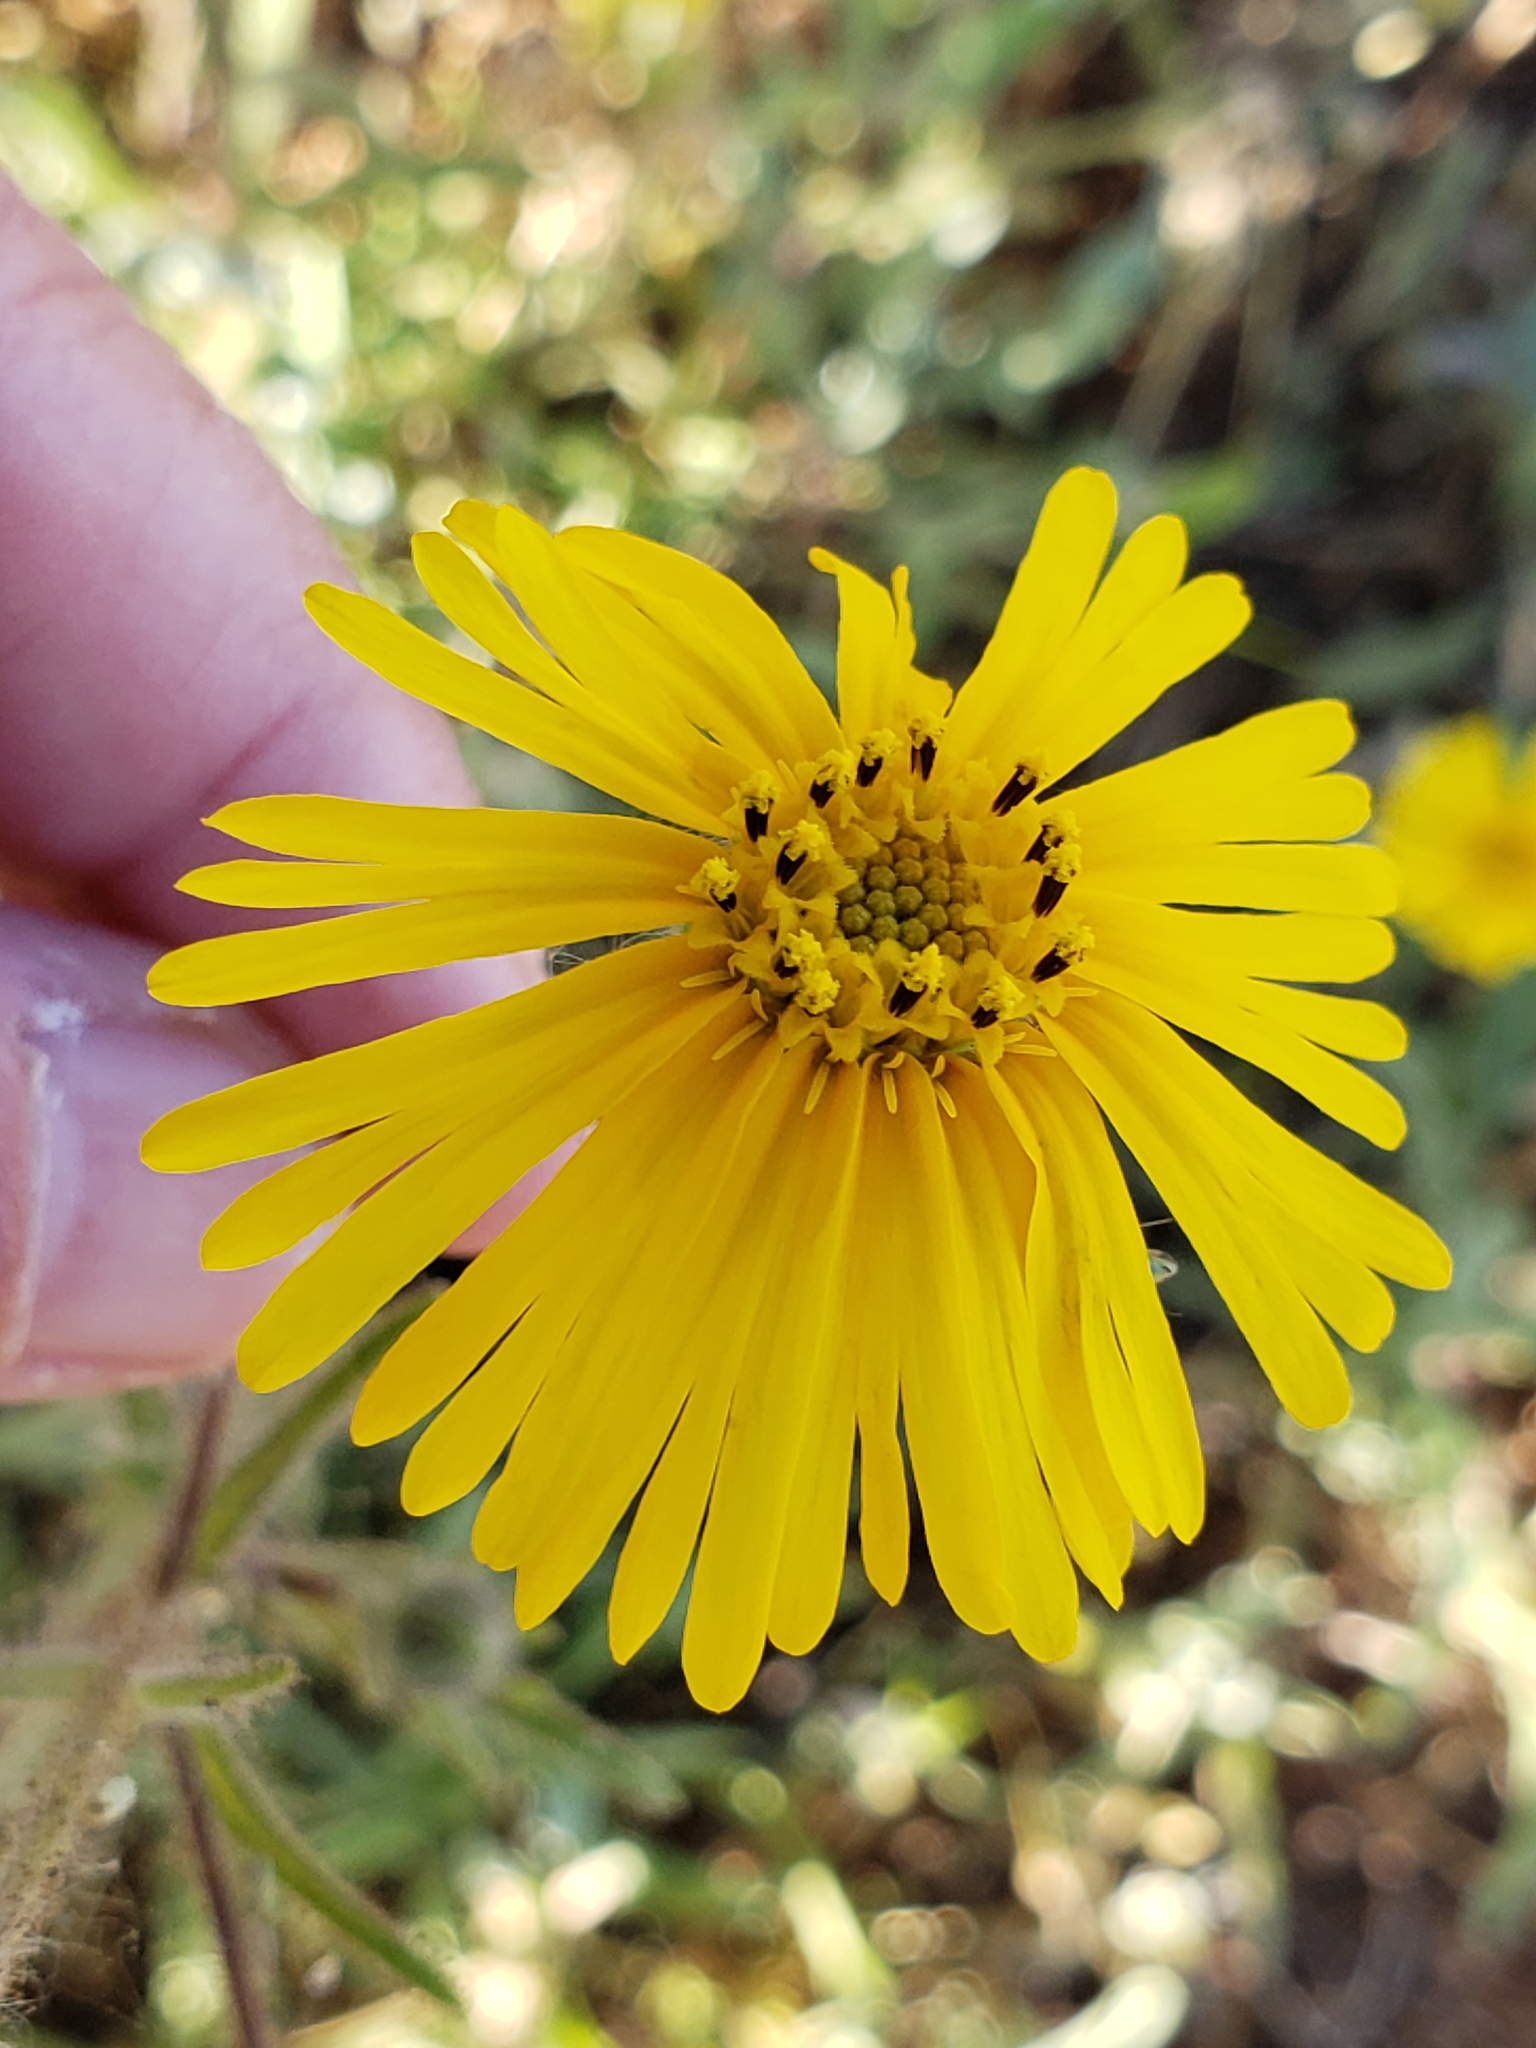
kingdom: Plantae
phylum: Tracheophyta
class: Magnoliopsida
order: Asterales
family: Asteraceae
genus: Madia
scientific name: Madia elegans
